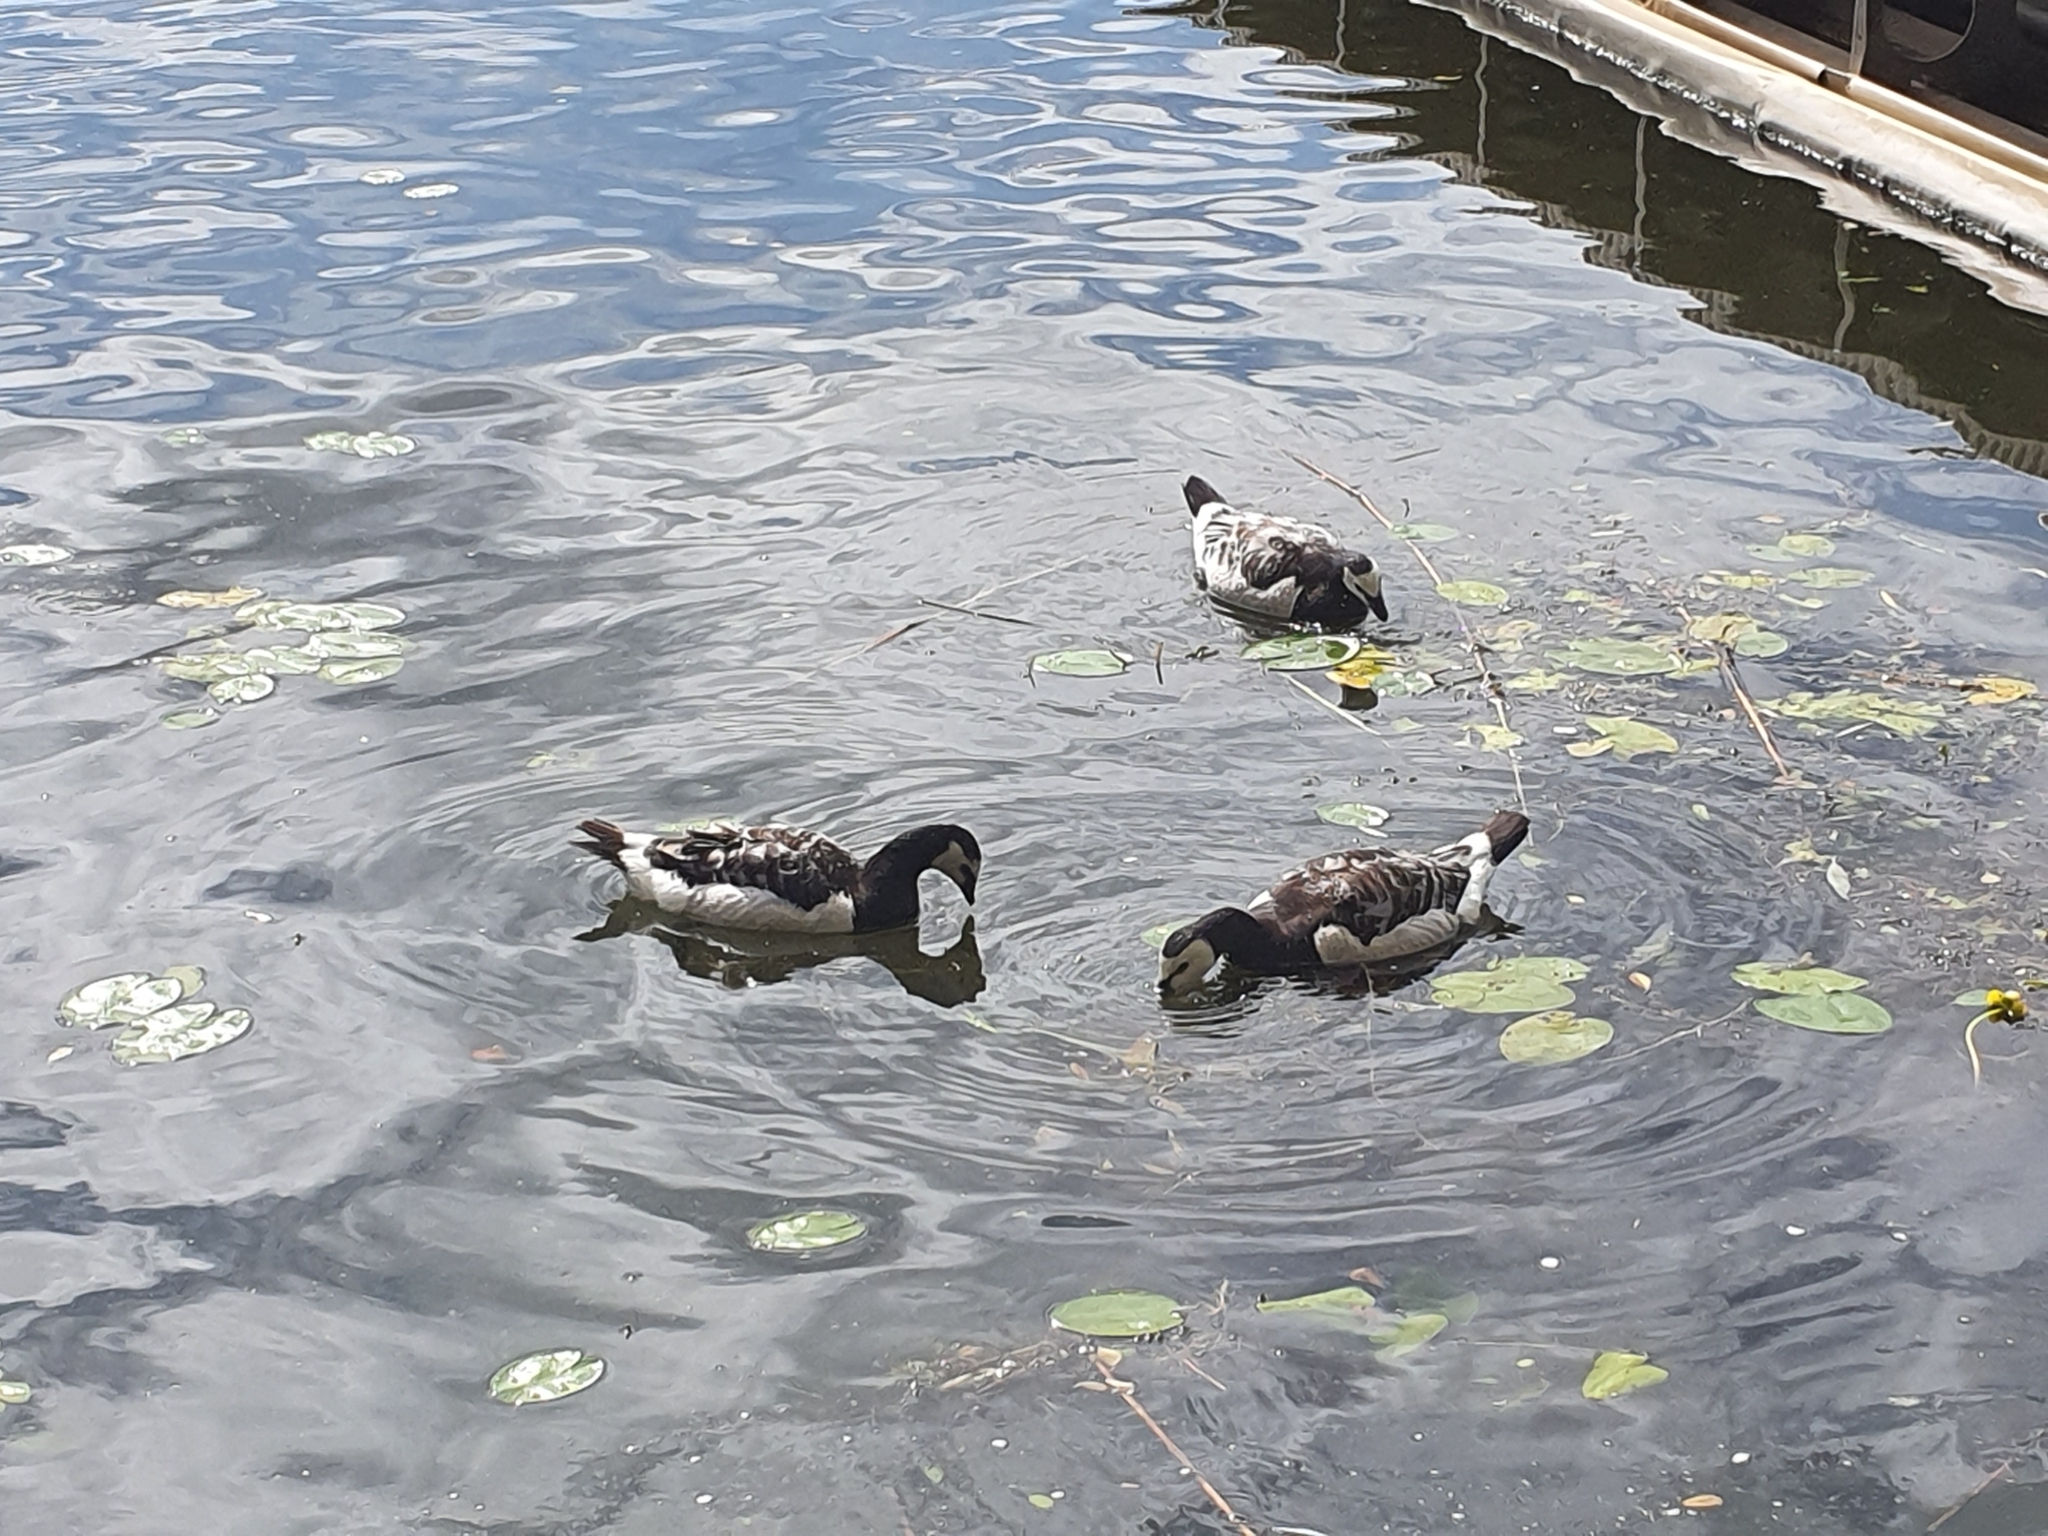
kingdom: Animalia
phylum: Chordata
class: Aves
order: Anseriformes
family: Anatidae
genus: Branta
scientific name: Branta leucopsis
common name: Barnacle goose
